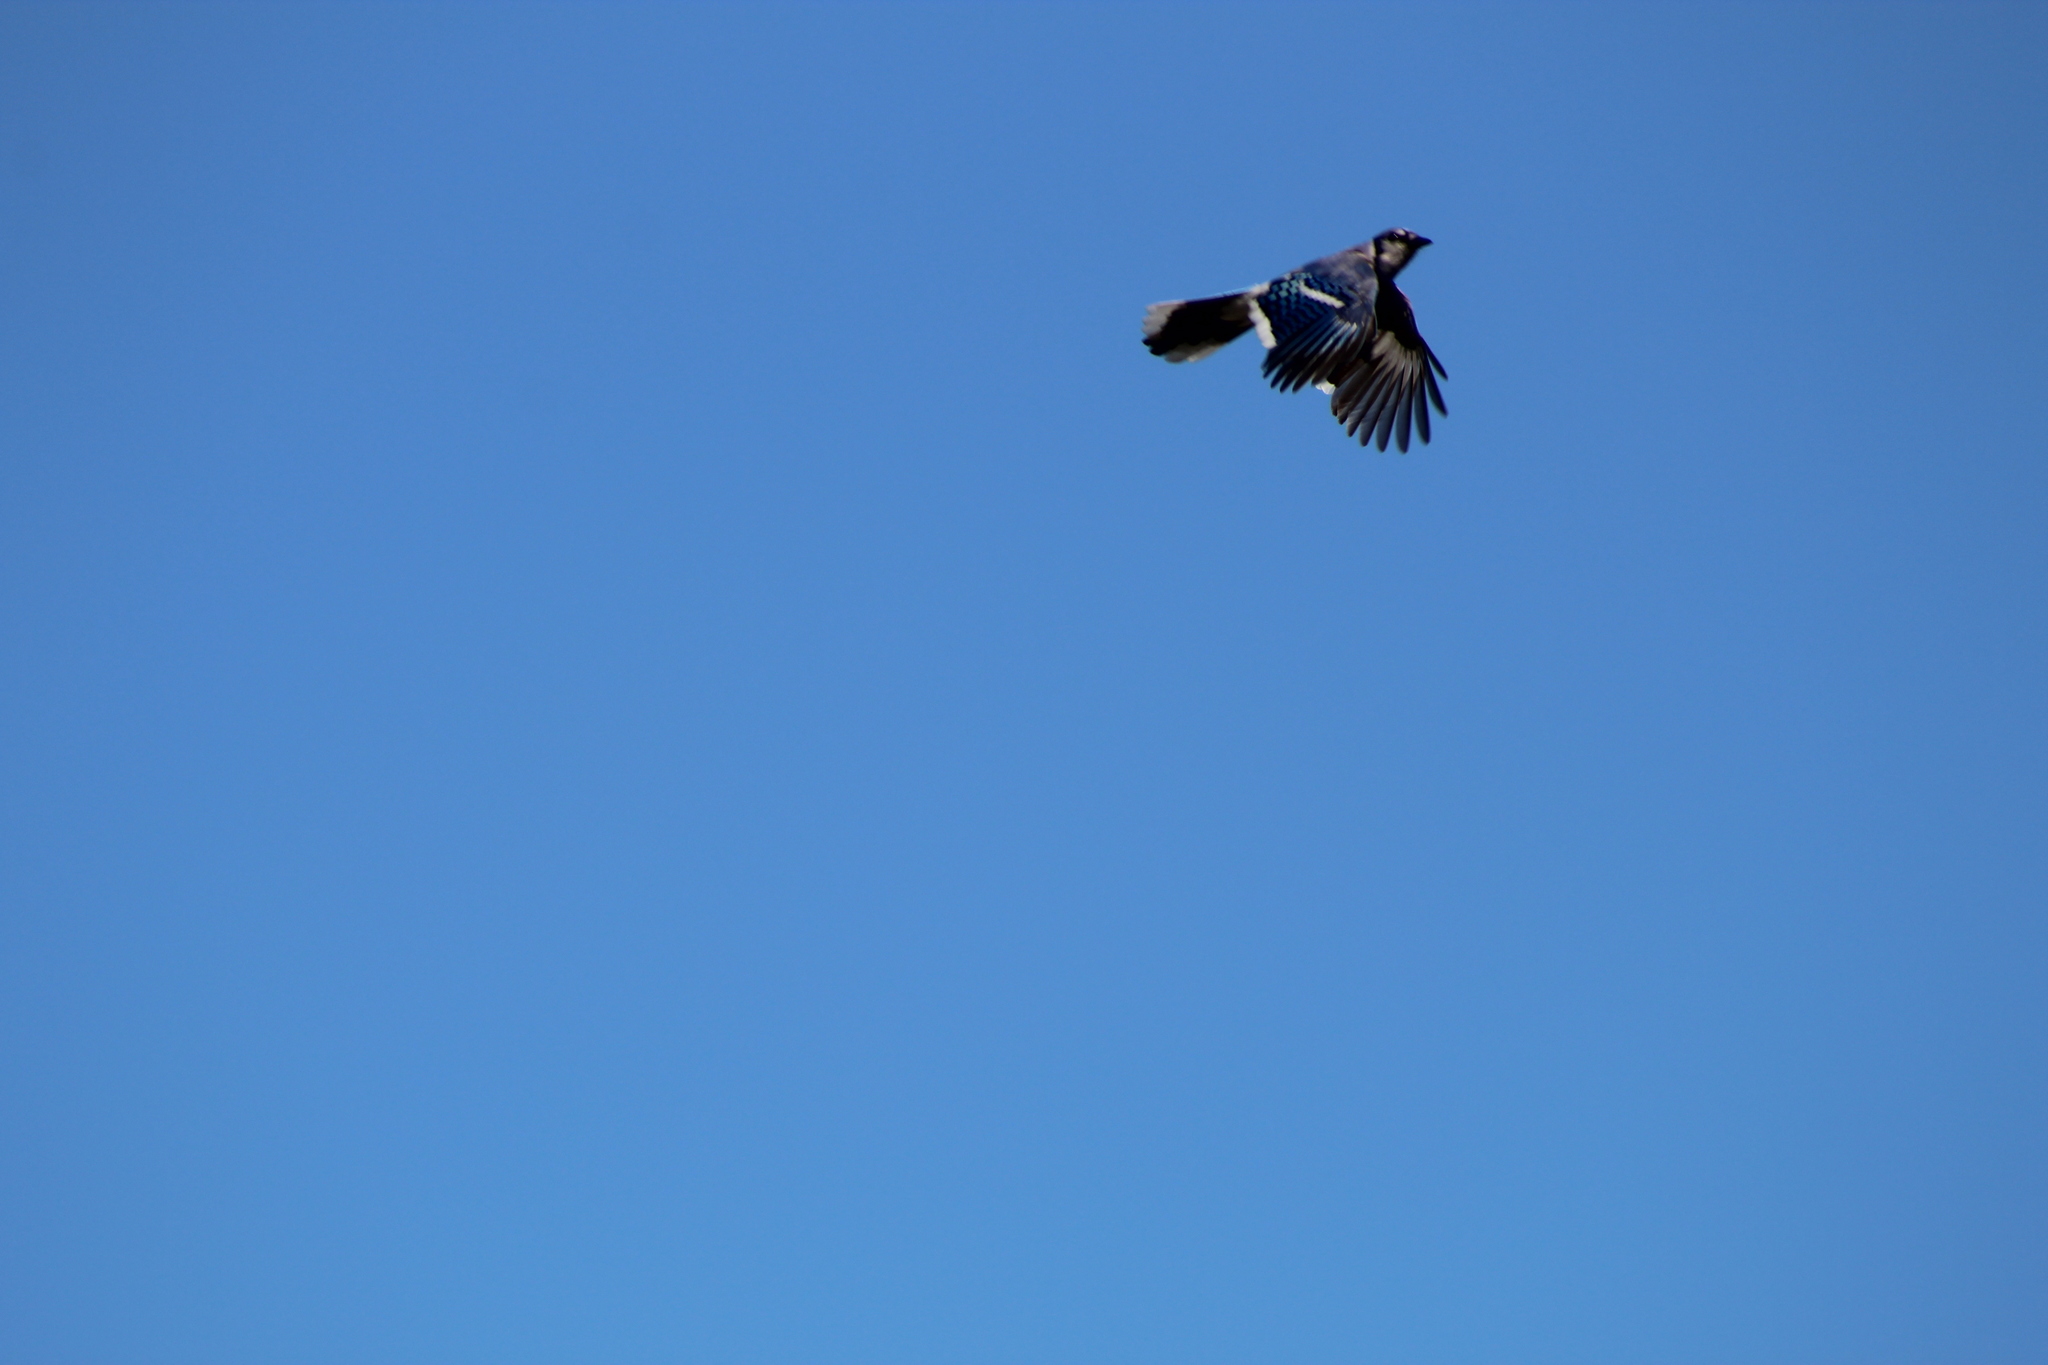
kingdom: Animalia
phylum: Chordata
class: Aves
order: Passeriformes
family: Corvidae
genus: Cyanocitta
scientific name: Cyanocitta cristata
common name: Blue jay
